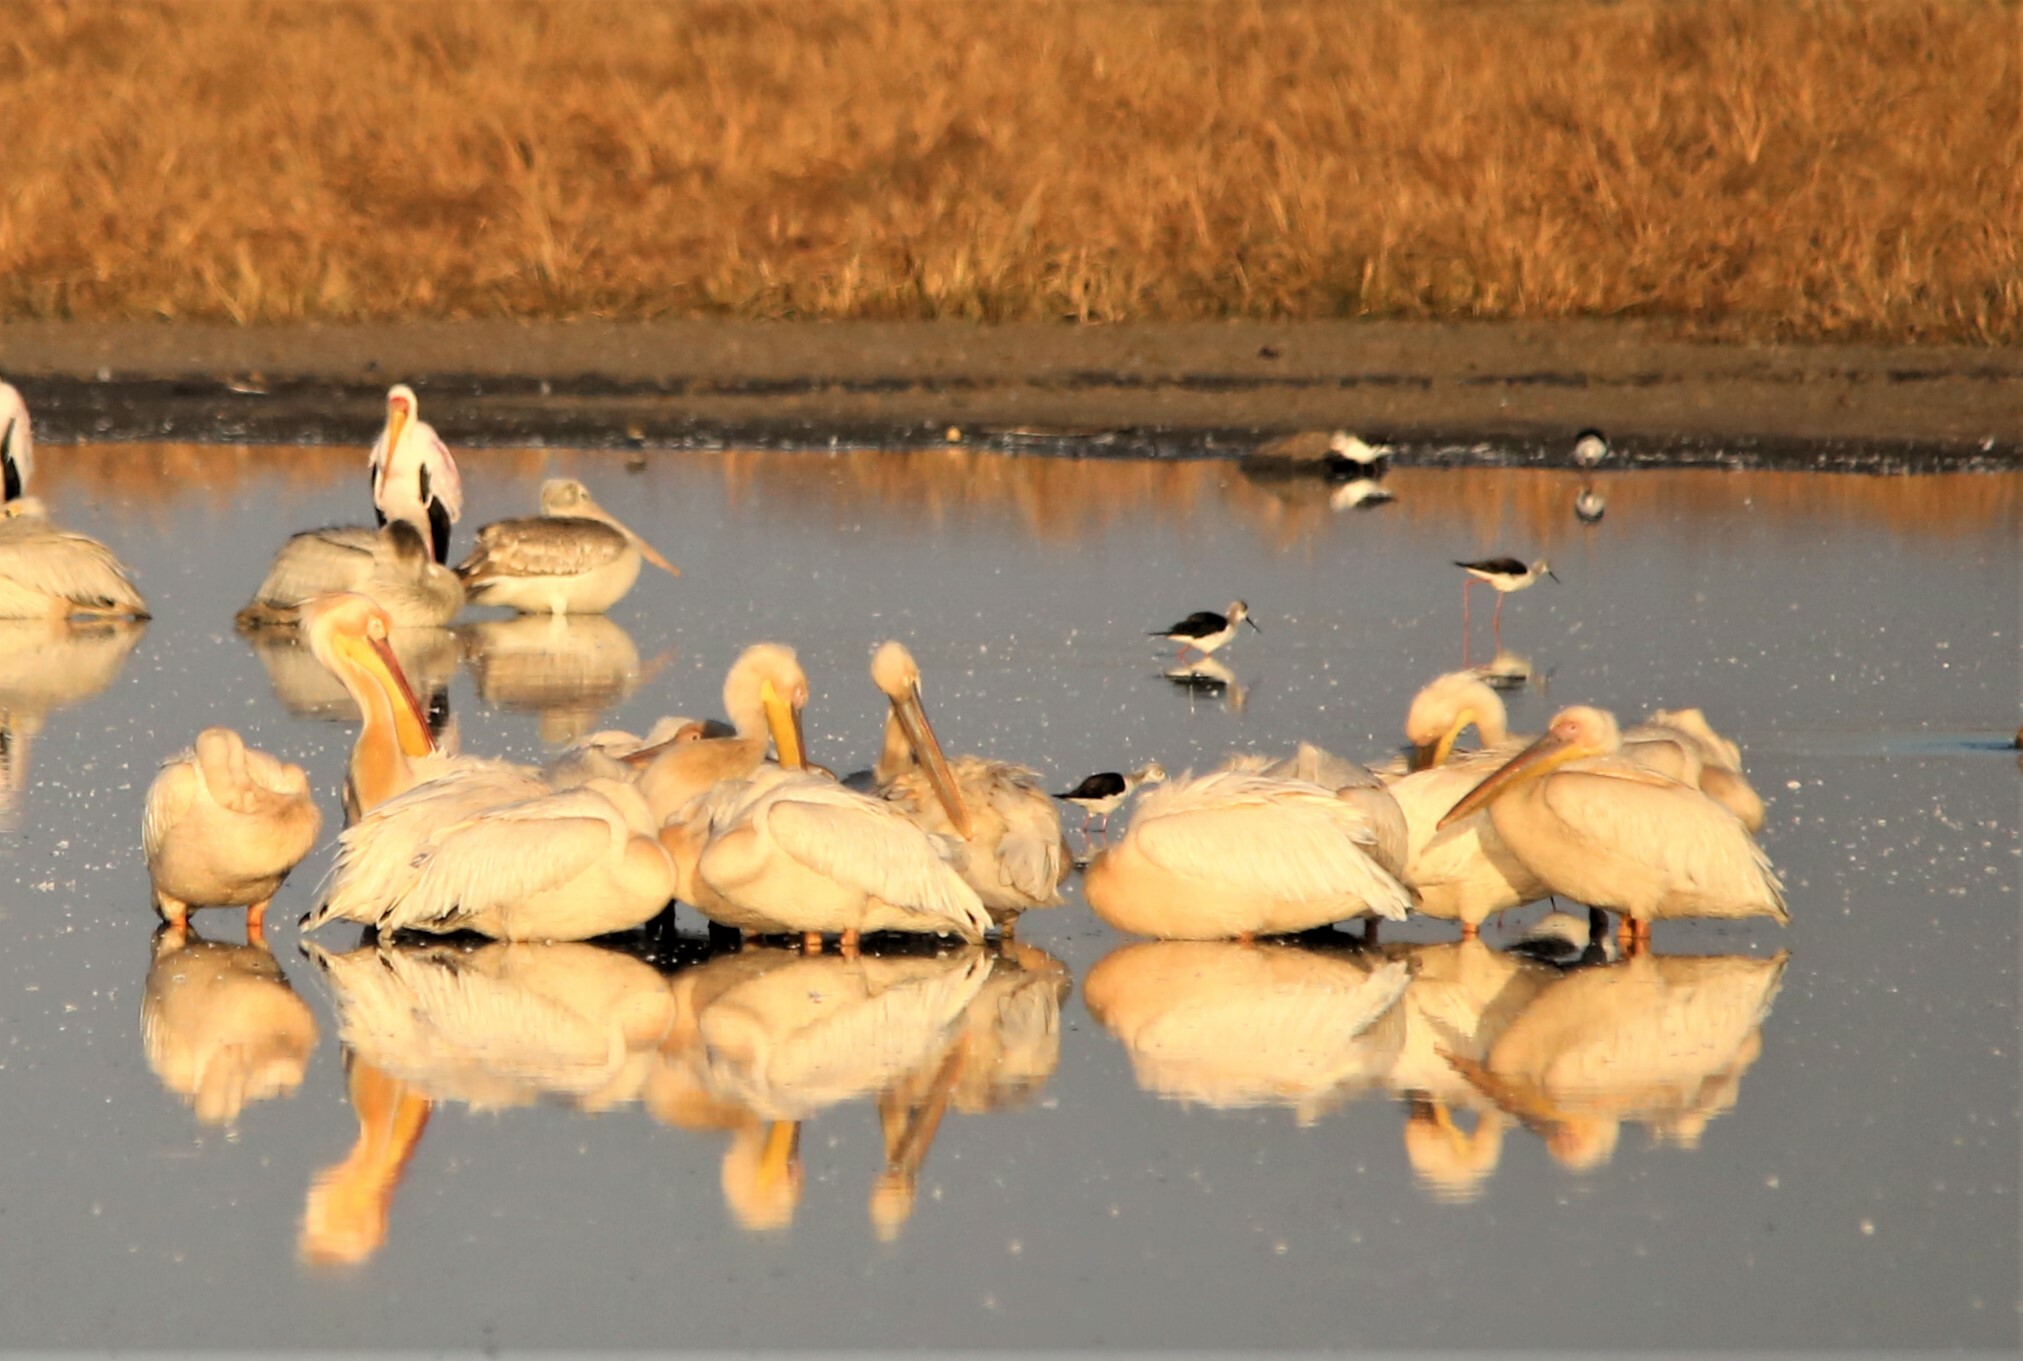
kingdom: Animalia
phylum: Chordata
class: Aves
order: Pelecaniformes
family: Pelecanidae
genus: Pelecanus
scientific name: Pelecanus onocrotalus
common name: Great white pelican
